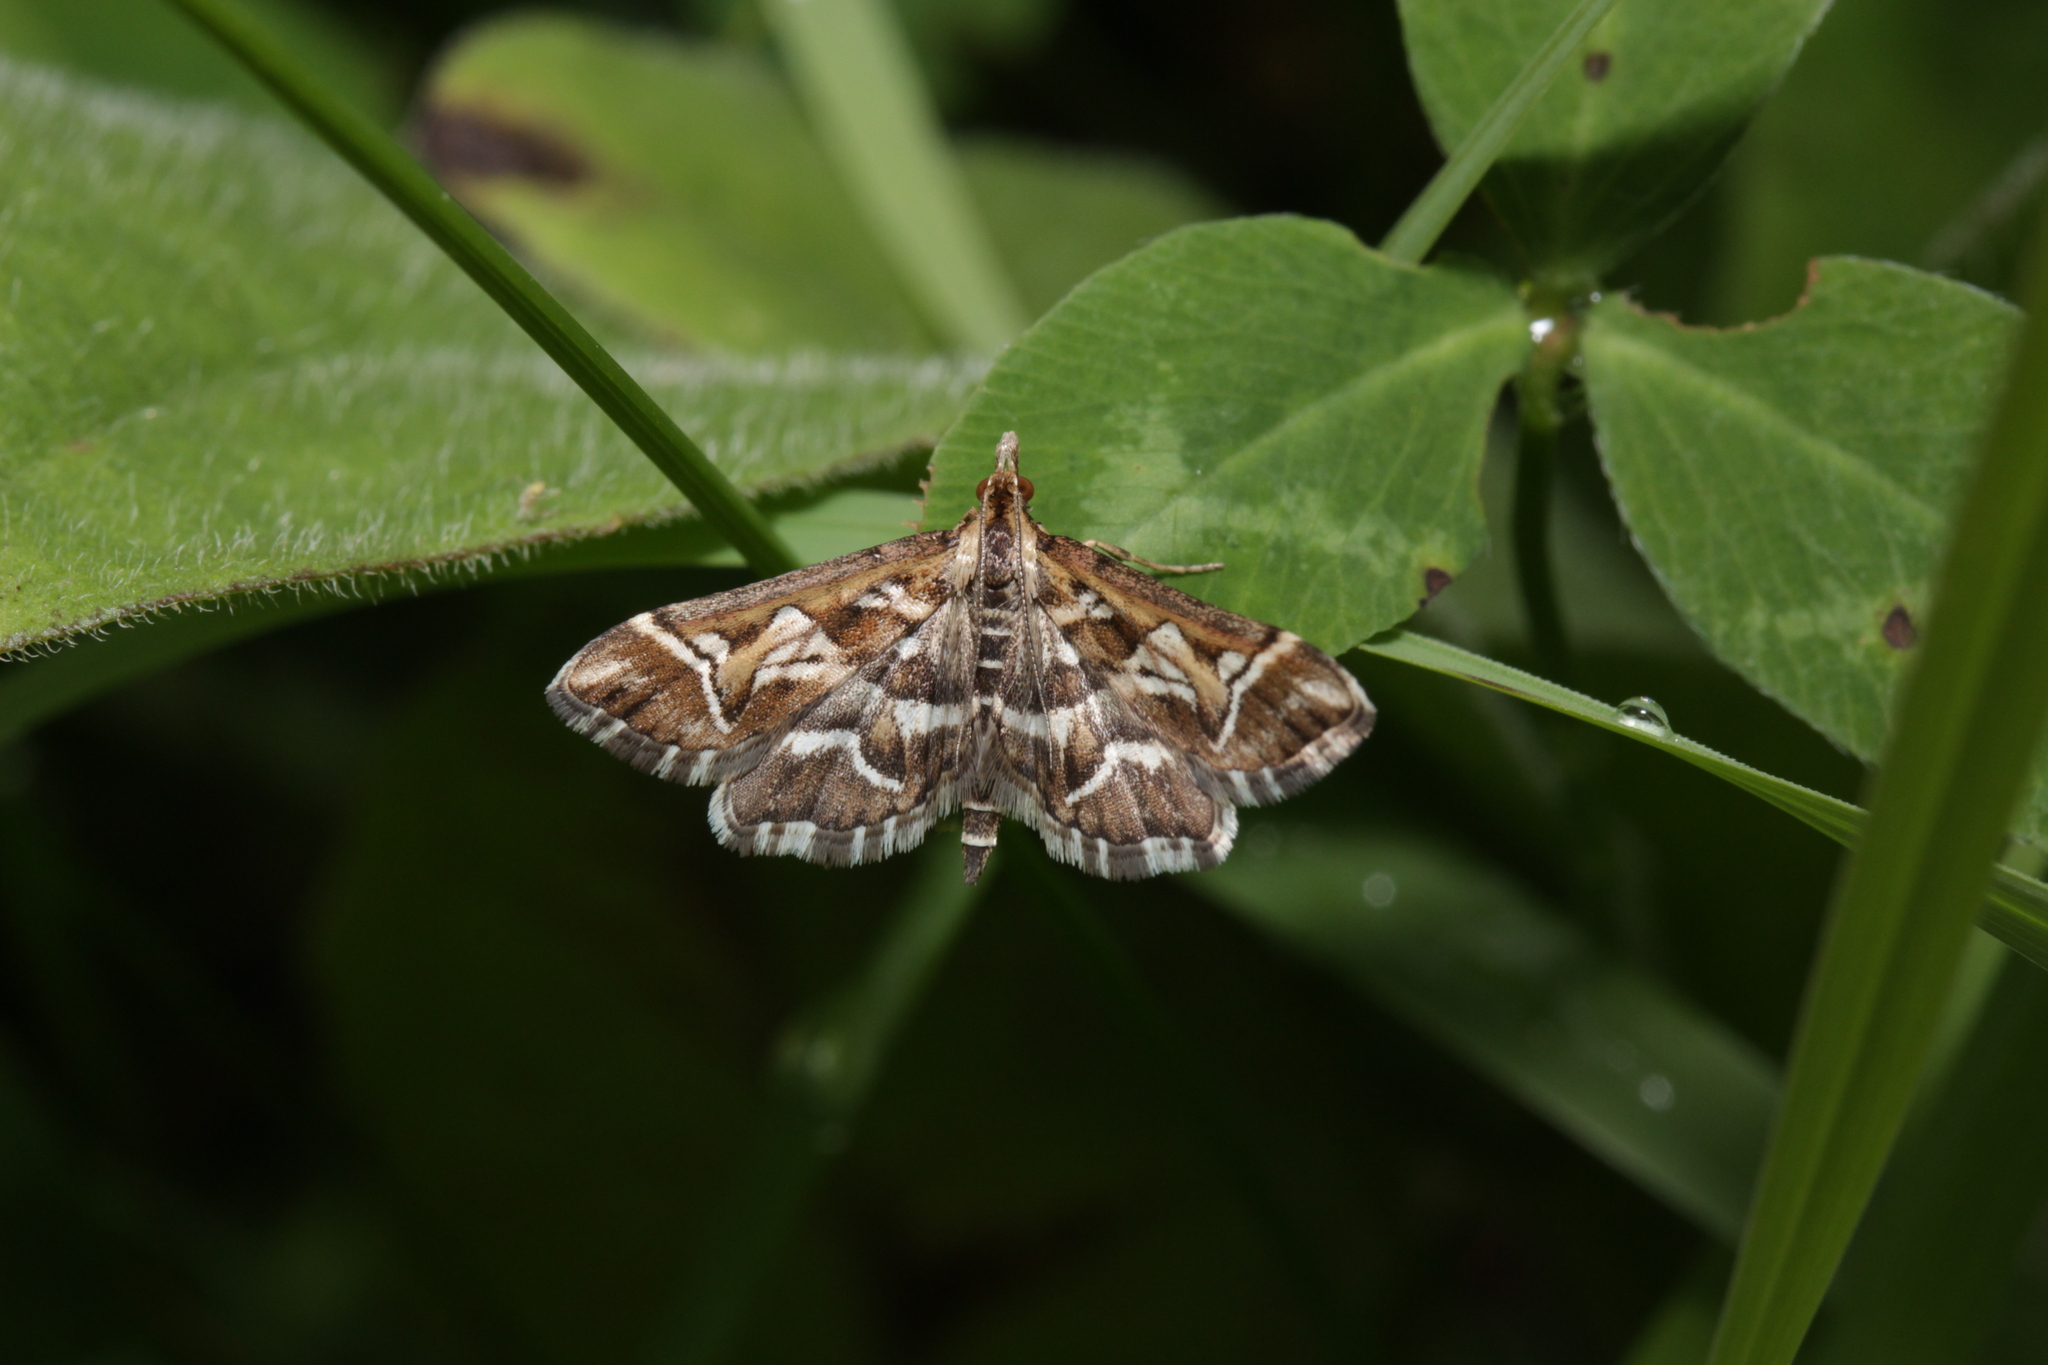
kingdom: Animalia
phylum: Arthropoda
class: Insecta
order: Lepidoptera
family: Crambidae
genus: Diasemia
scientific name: Diasemia reticularis
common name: Lettered china-mark
